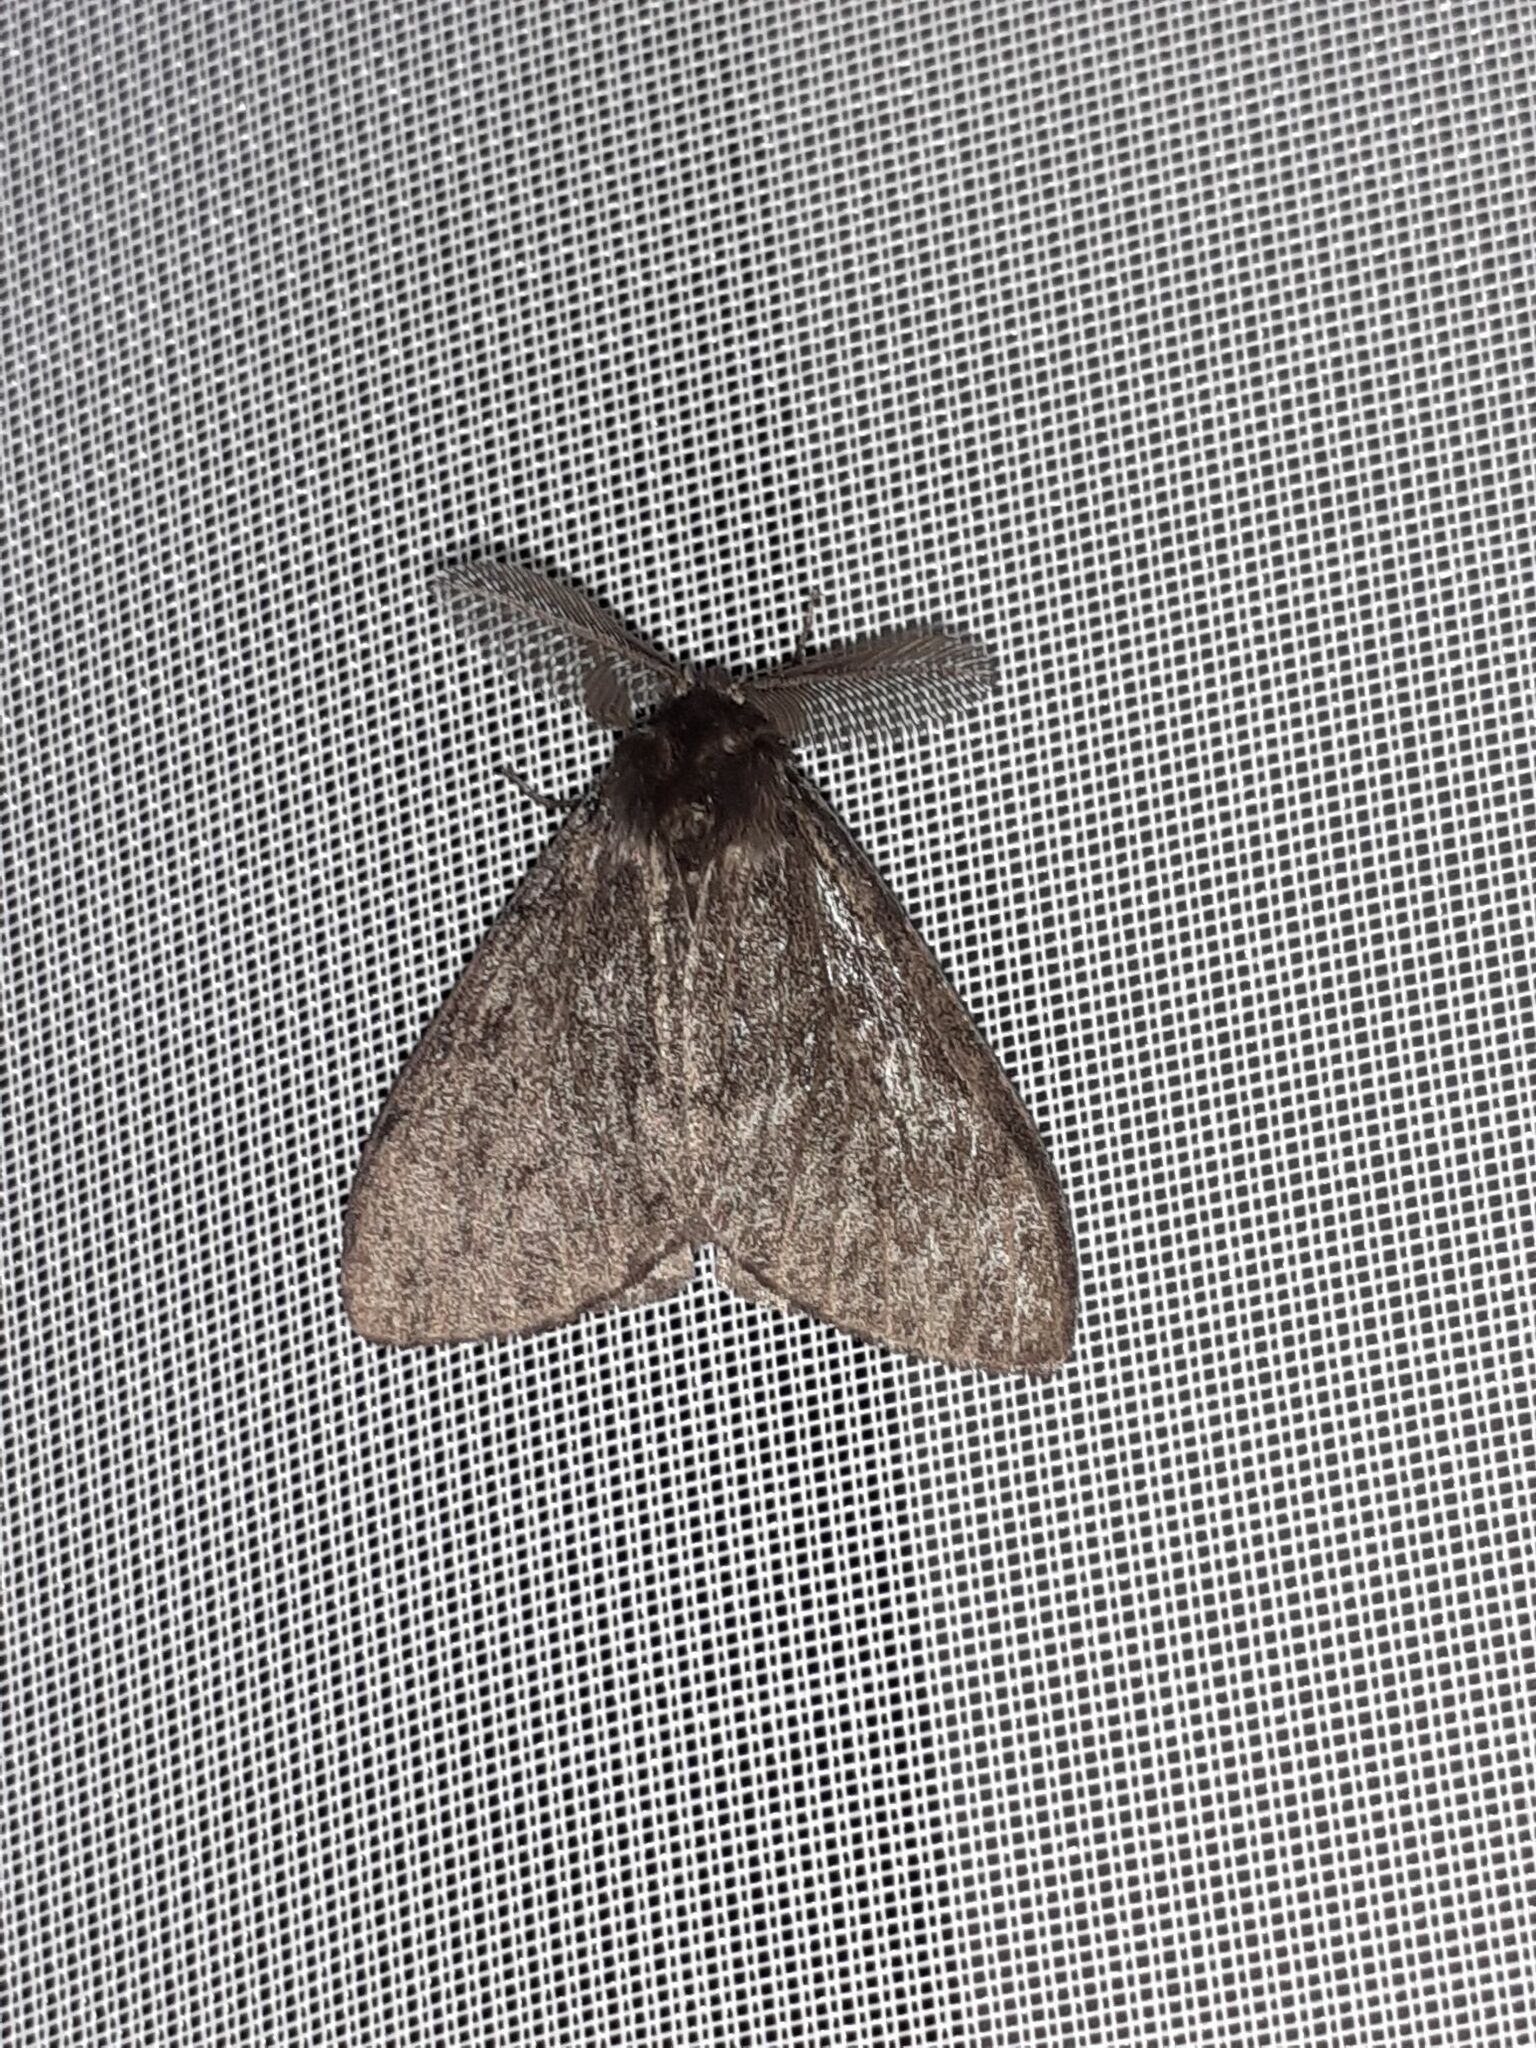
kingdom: Animalia
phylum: Arthropoda
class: Insecta
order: Lepidoptera
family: Erebidae
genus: Lymantria
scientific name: Lymantria monacha
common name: Black arches
